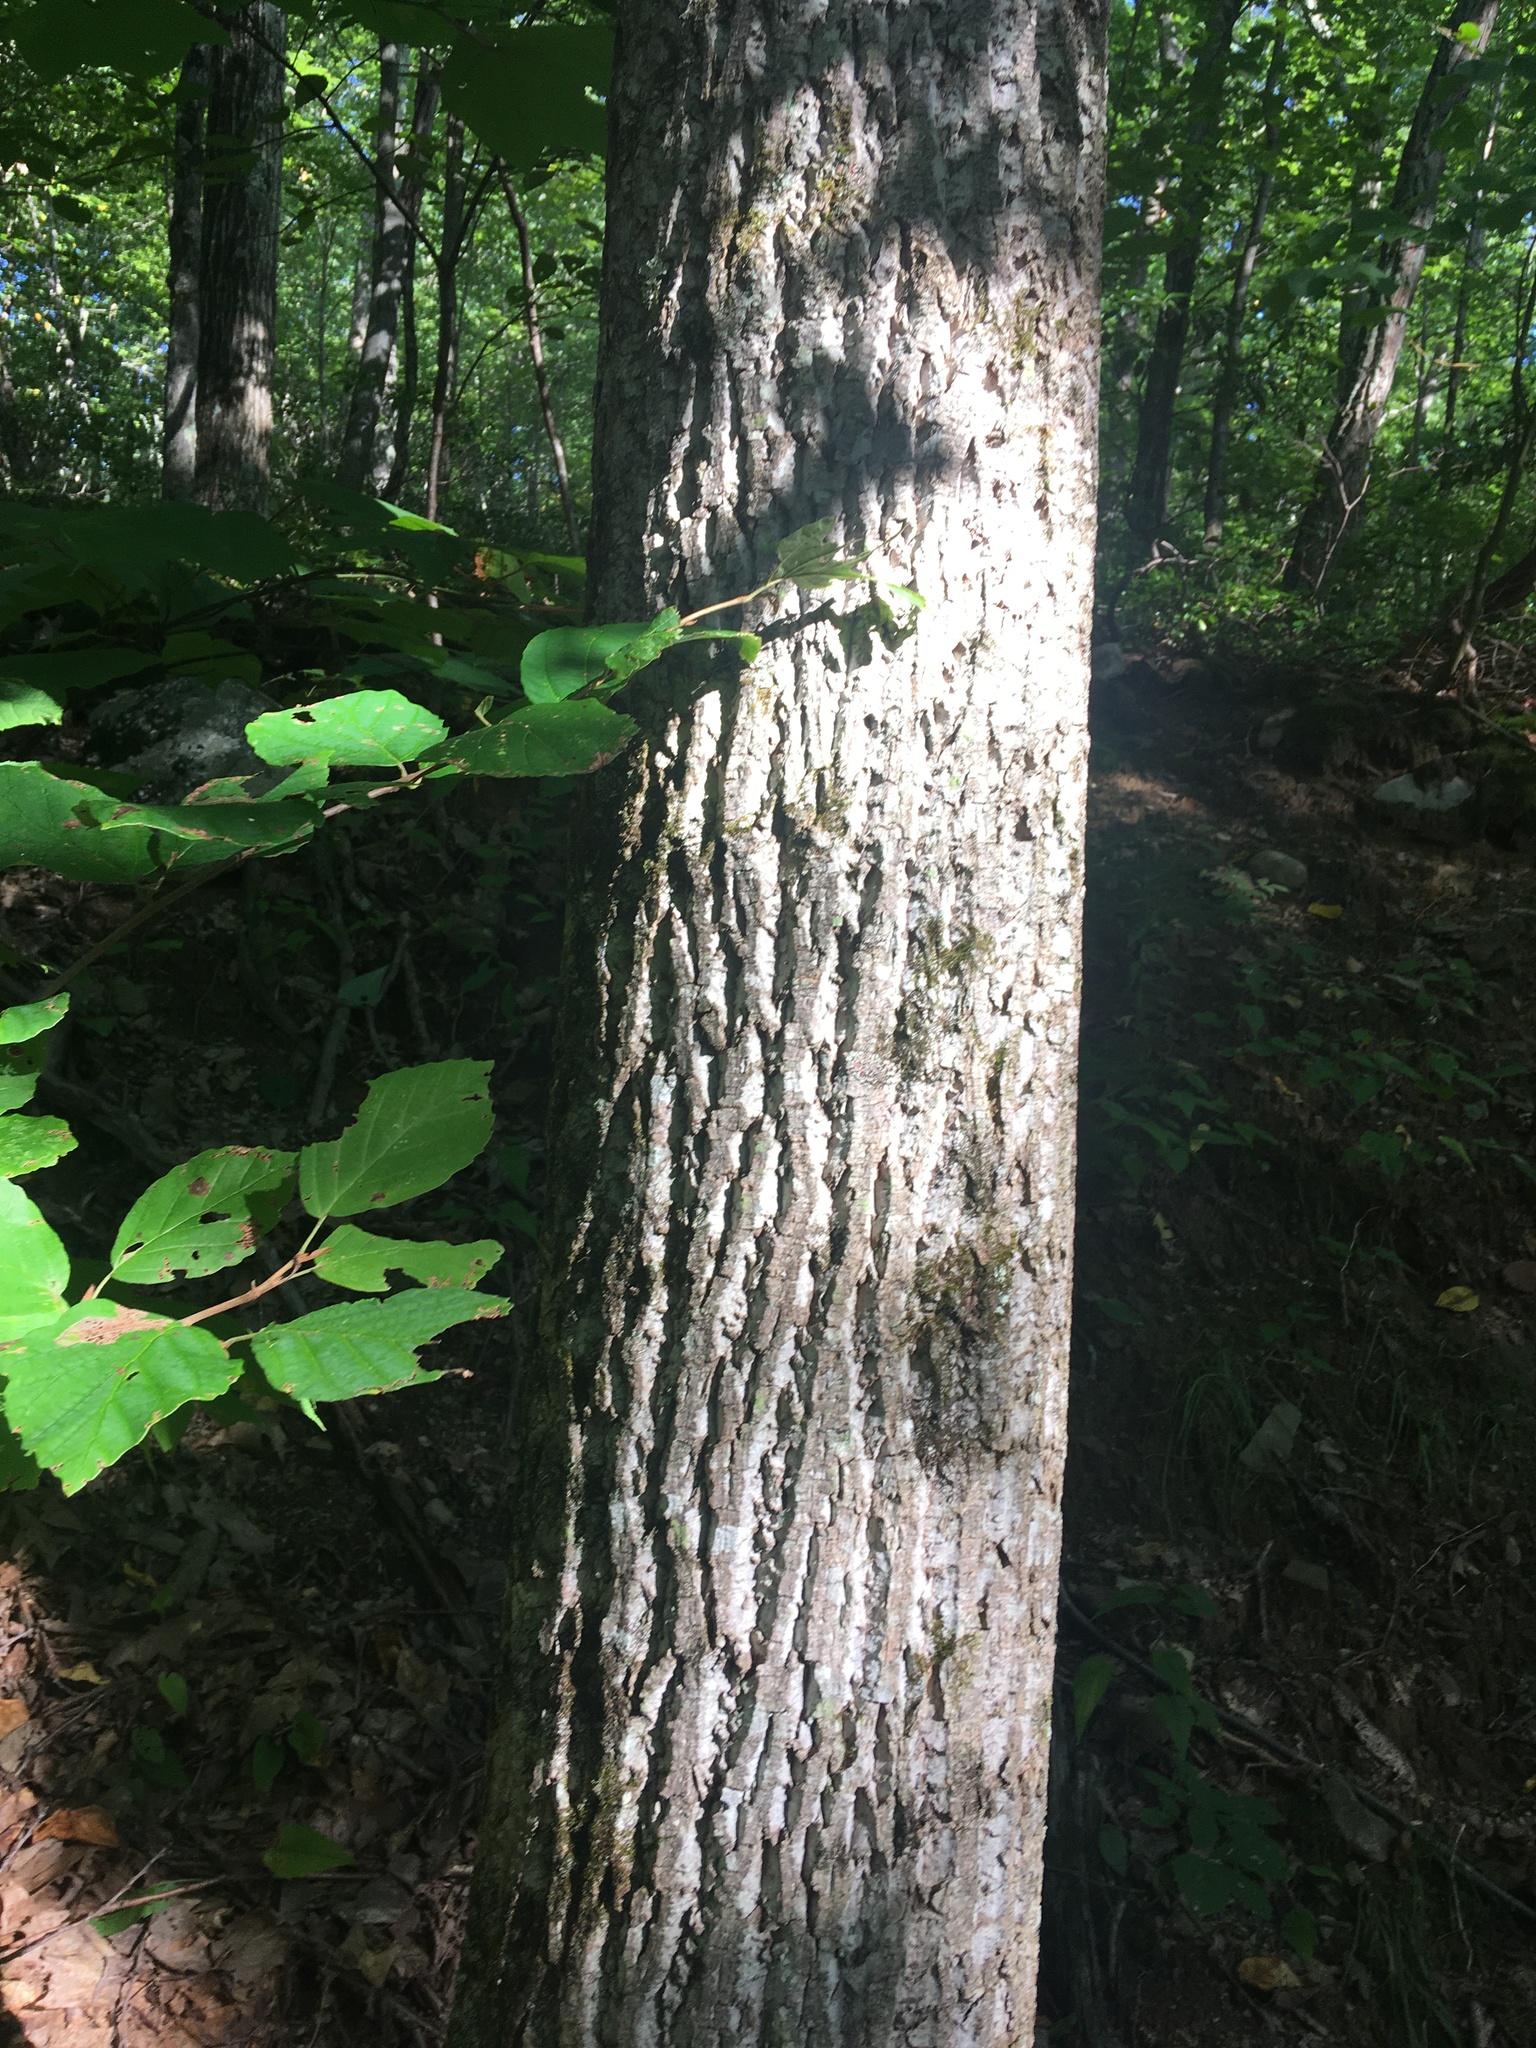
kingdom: Plantae
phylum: Tracheophyta
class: Magnoliopsida
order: Magnoliales
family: Magnoliaceae
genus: Liriodendron
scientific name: Liriodendron tulipifera
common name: Tulip tree
